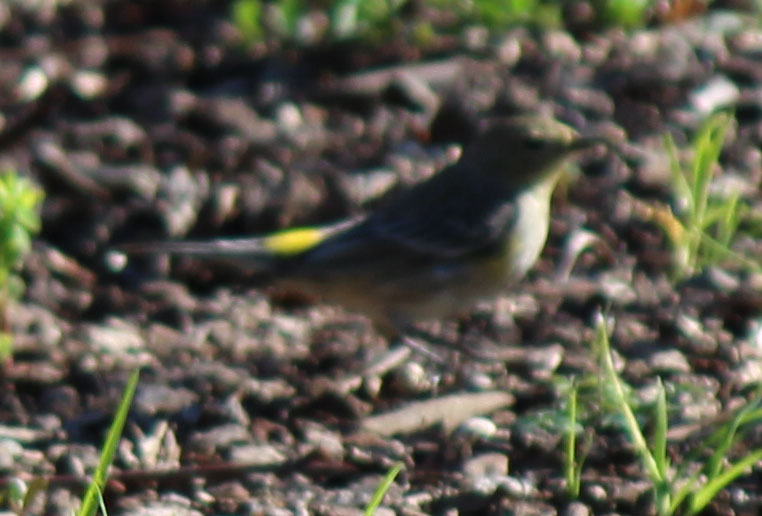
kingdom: Animalia
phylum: Chordata
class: Aves
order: Passeriformes
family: Parulidae
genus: Setophaga
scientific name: Setophaga auduboni
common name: Audubon's warbler
